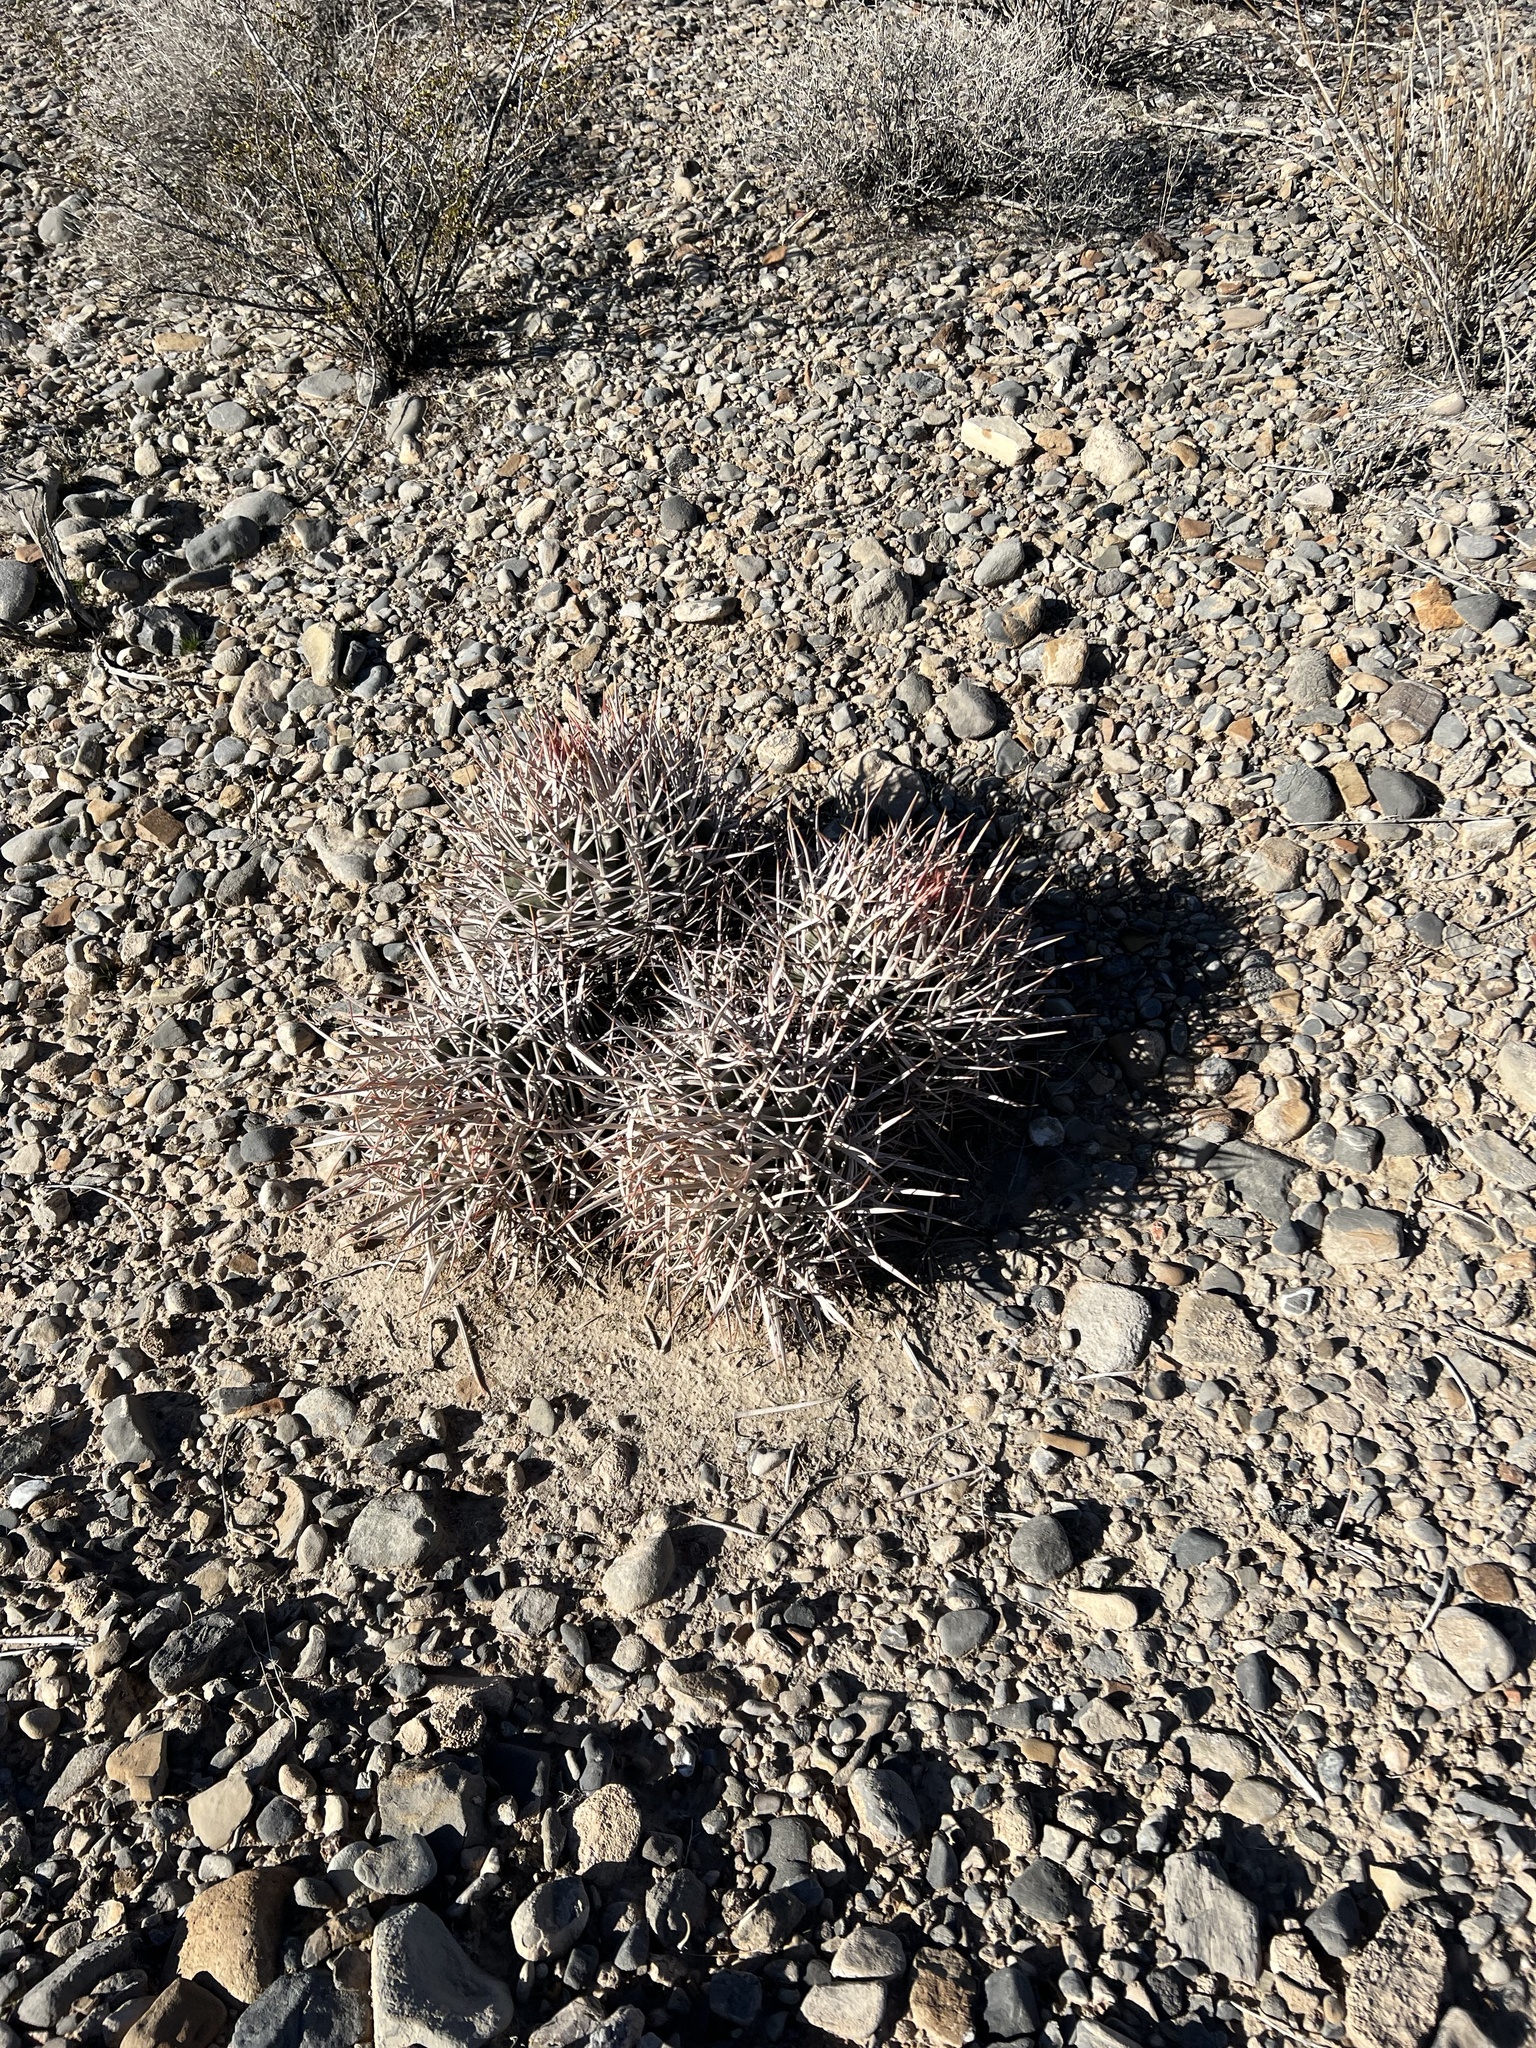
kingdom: Plantae
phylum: Tracheophyta
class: Magnoliopsida
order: Caryophyllales
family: Cactaceae
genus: Echinocactus
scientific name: Echinocactus polycephalus
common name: Cottontop cactus
